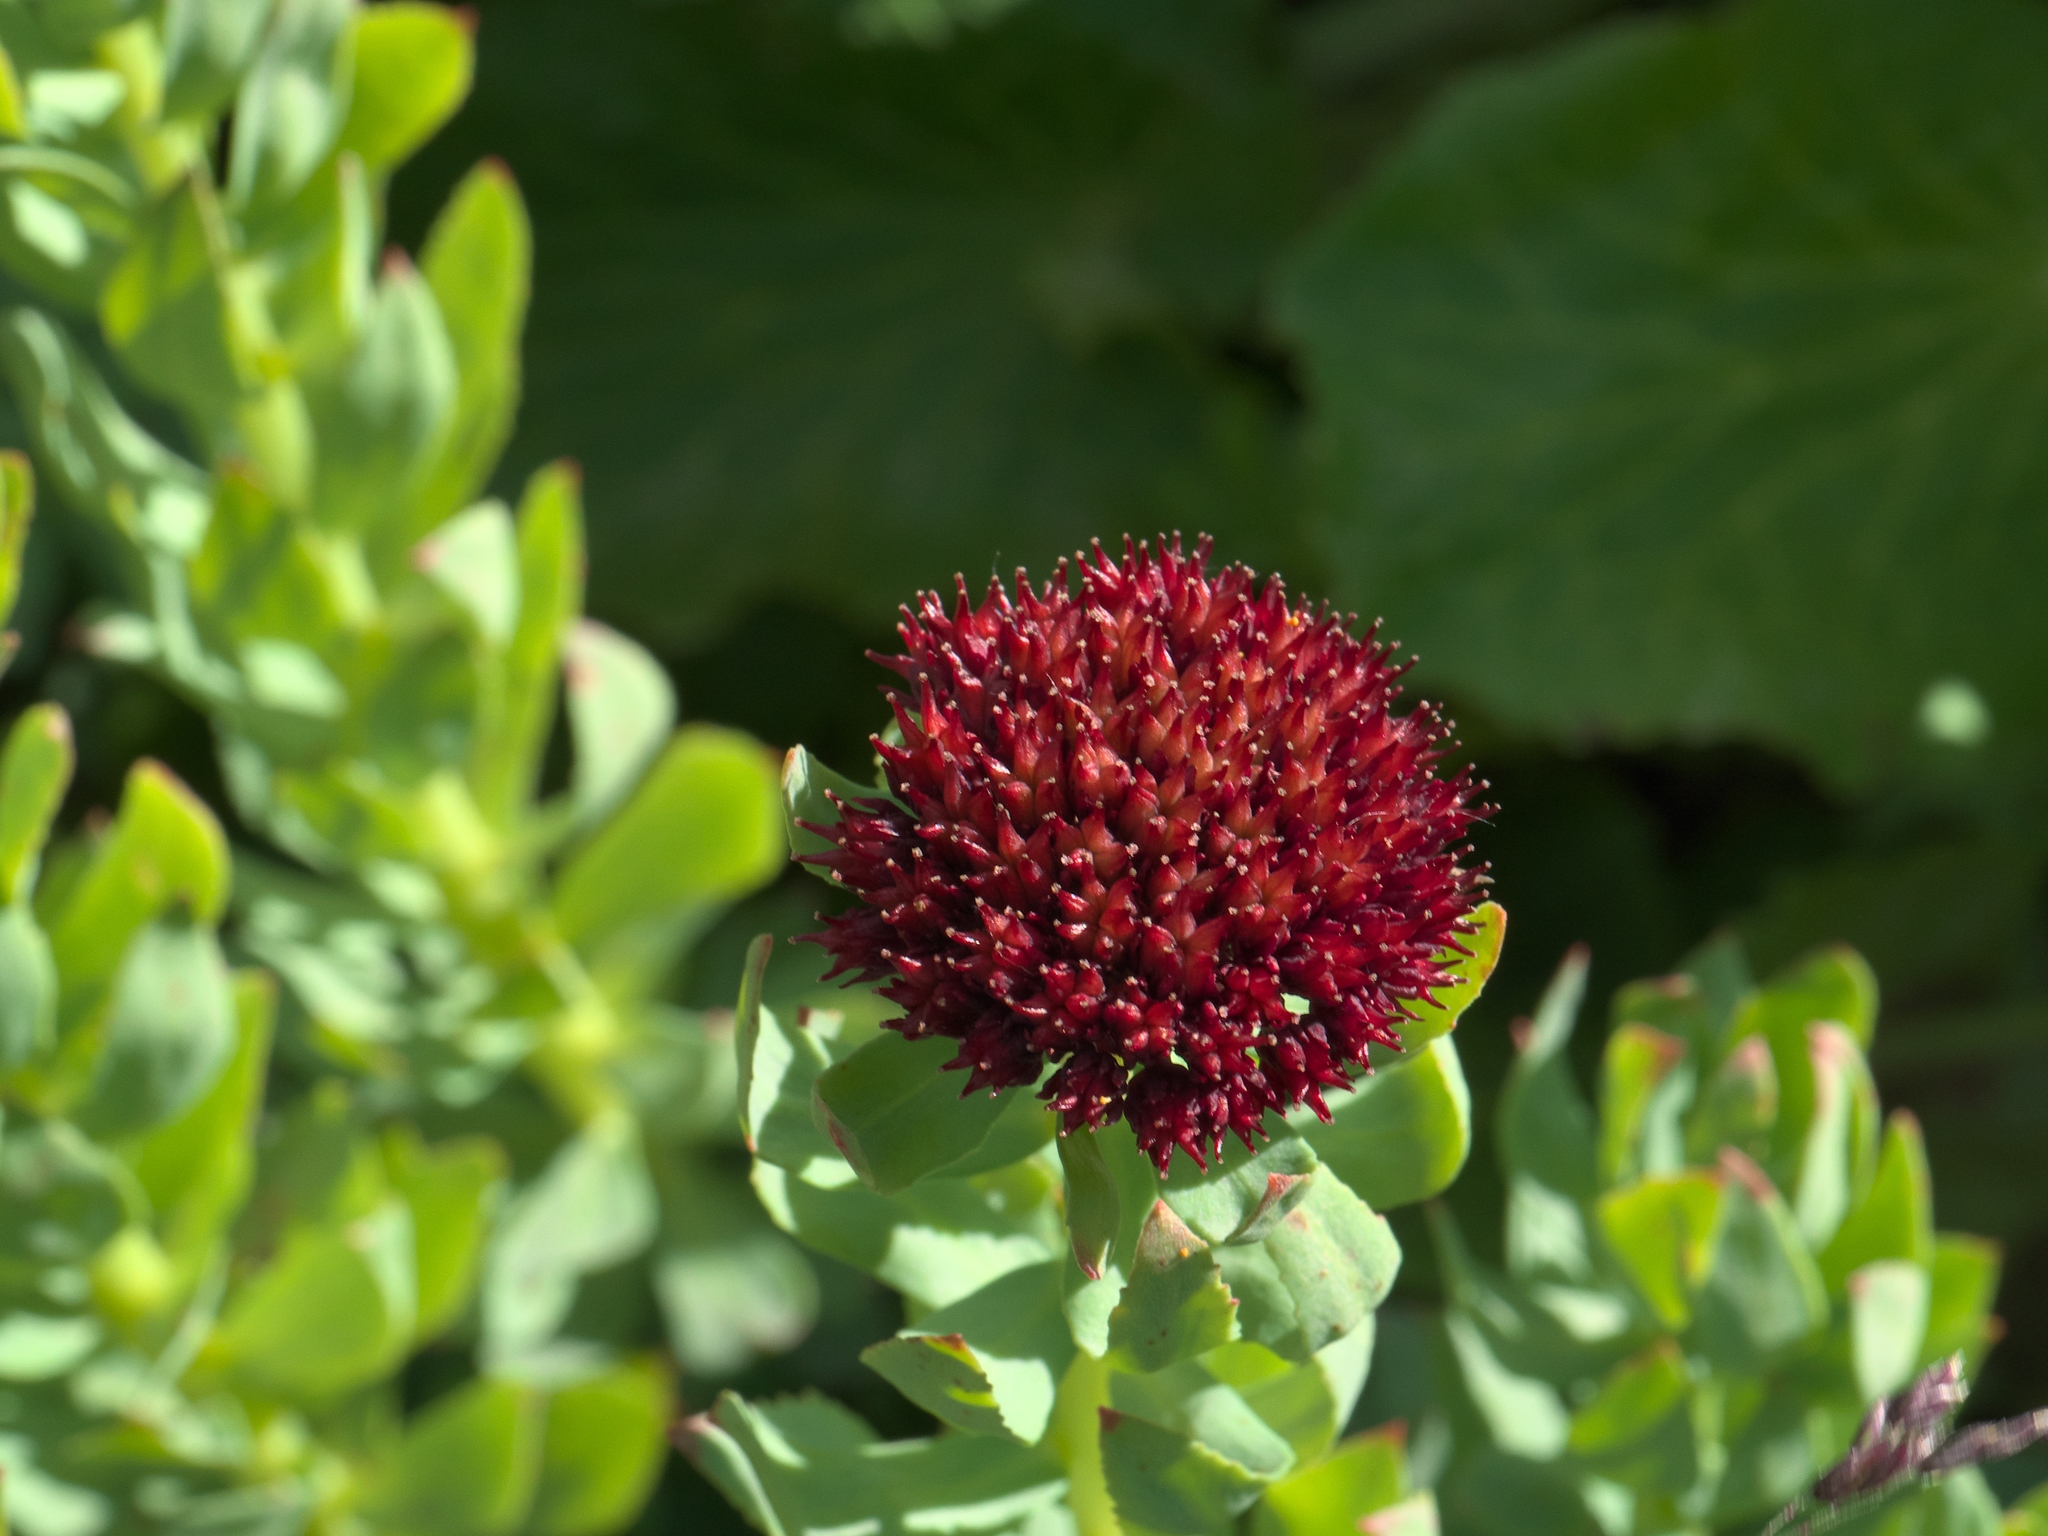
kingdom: Plantae
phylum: Tracheophyta
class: Magnoliopsida
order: Saxifragales
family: Crassulaceae
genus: Rhodiola
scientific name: Rhodiola integrifolia
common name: Western roseroot
